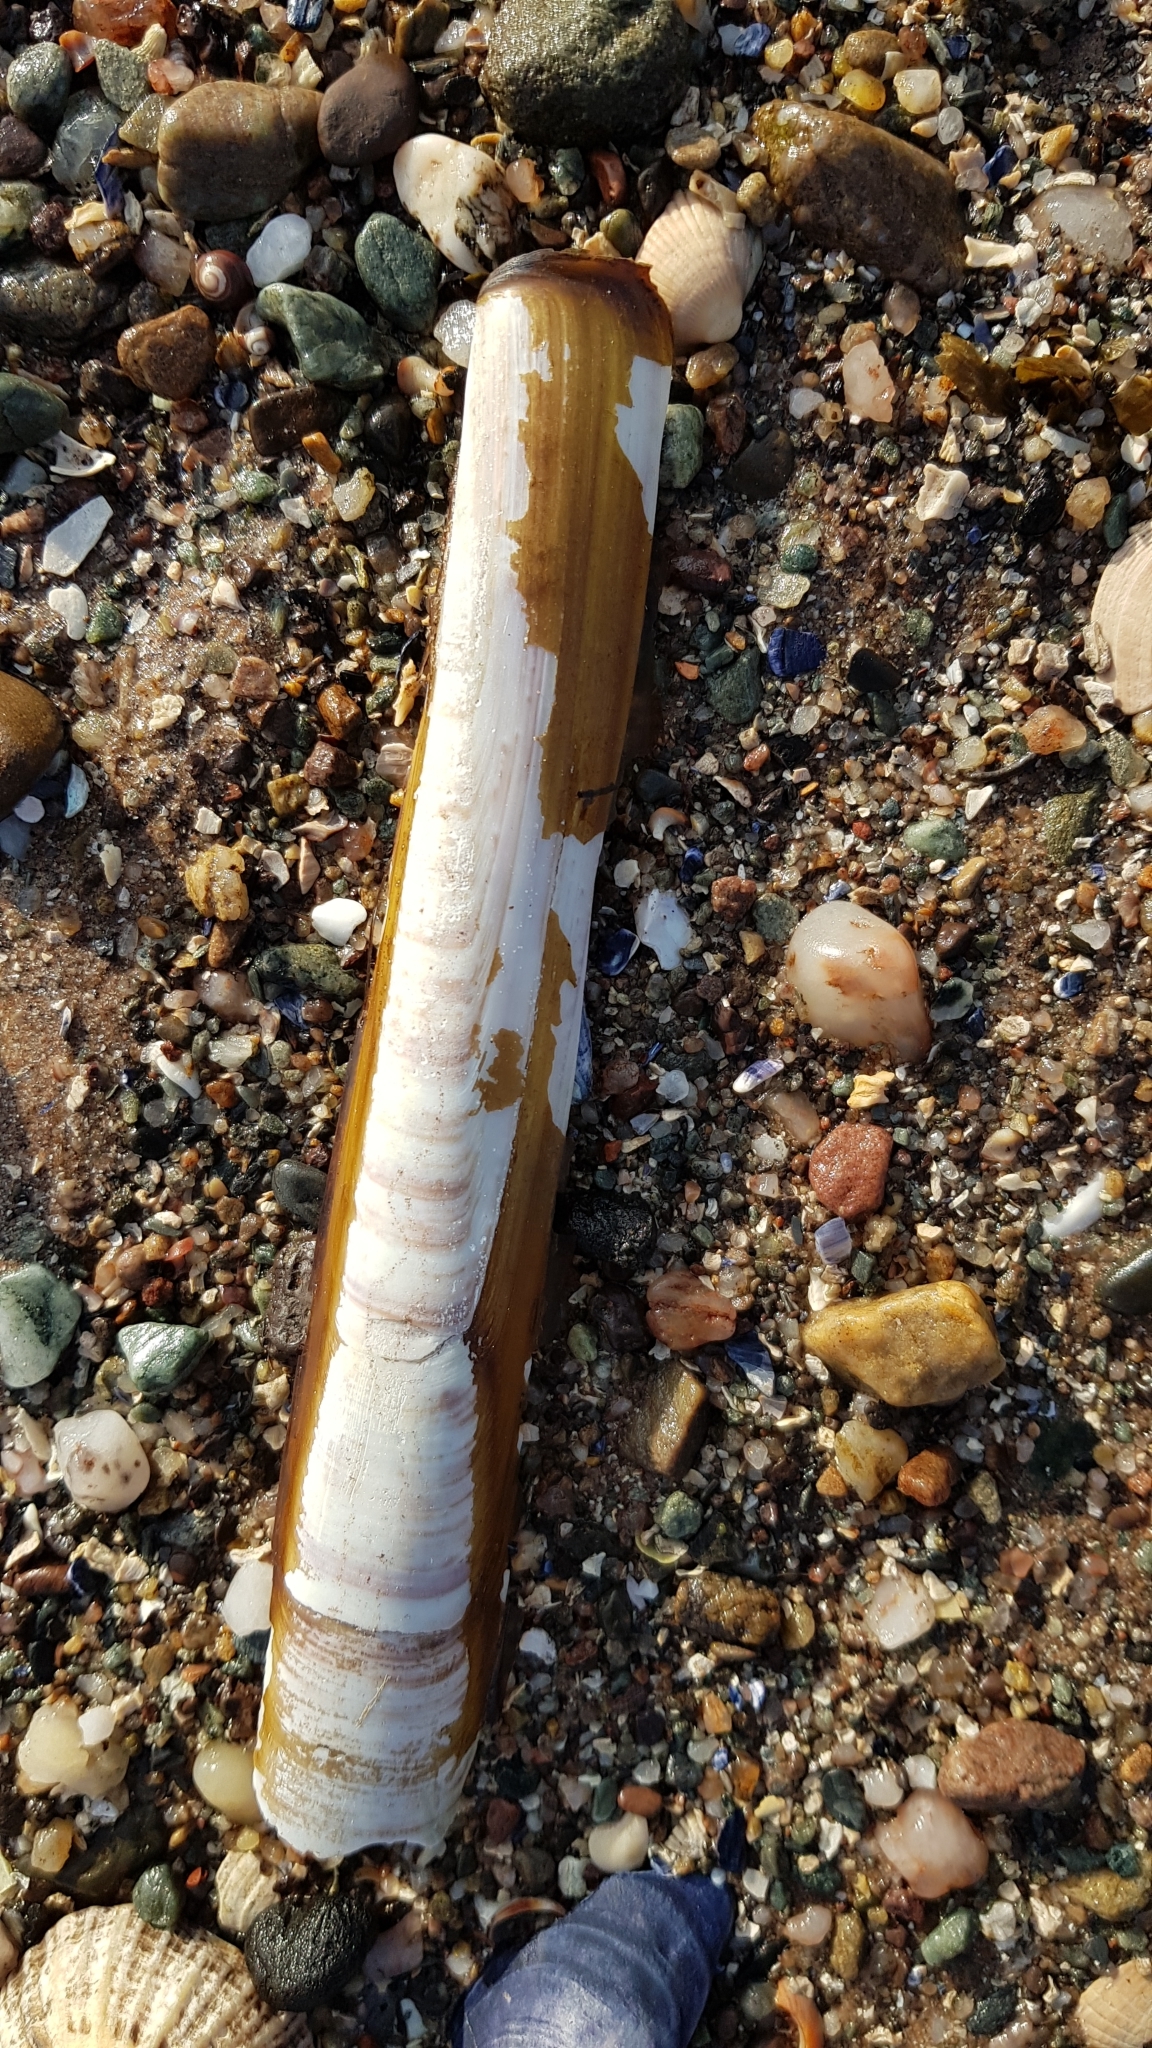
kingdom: Animalia
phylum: Mollusca
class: Bivalvia
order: Adapedonta
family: Pharidae
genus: Ensis
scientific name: Ensis leei
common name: American jack knife clam
